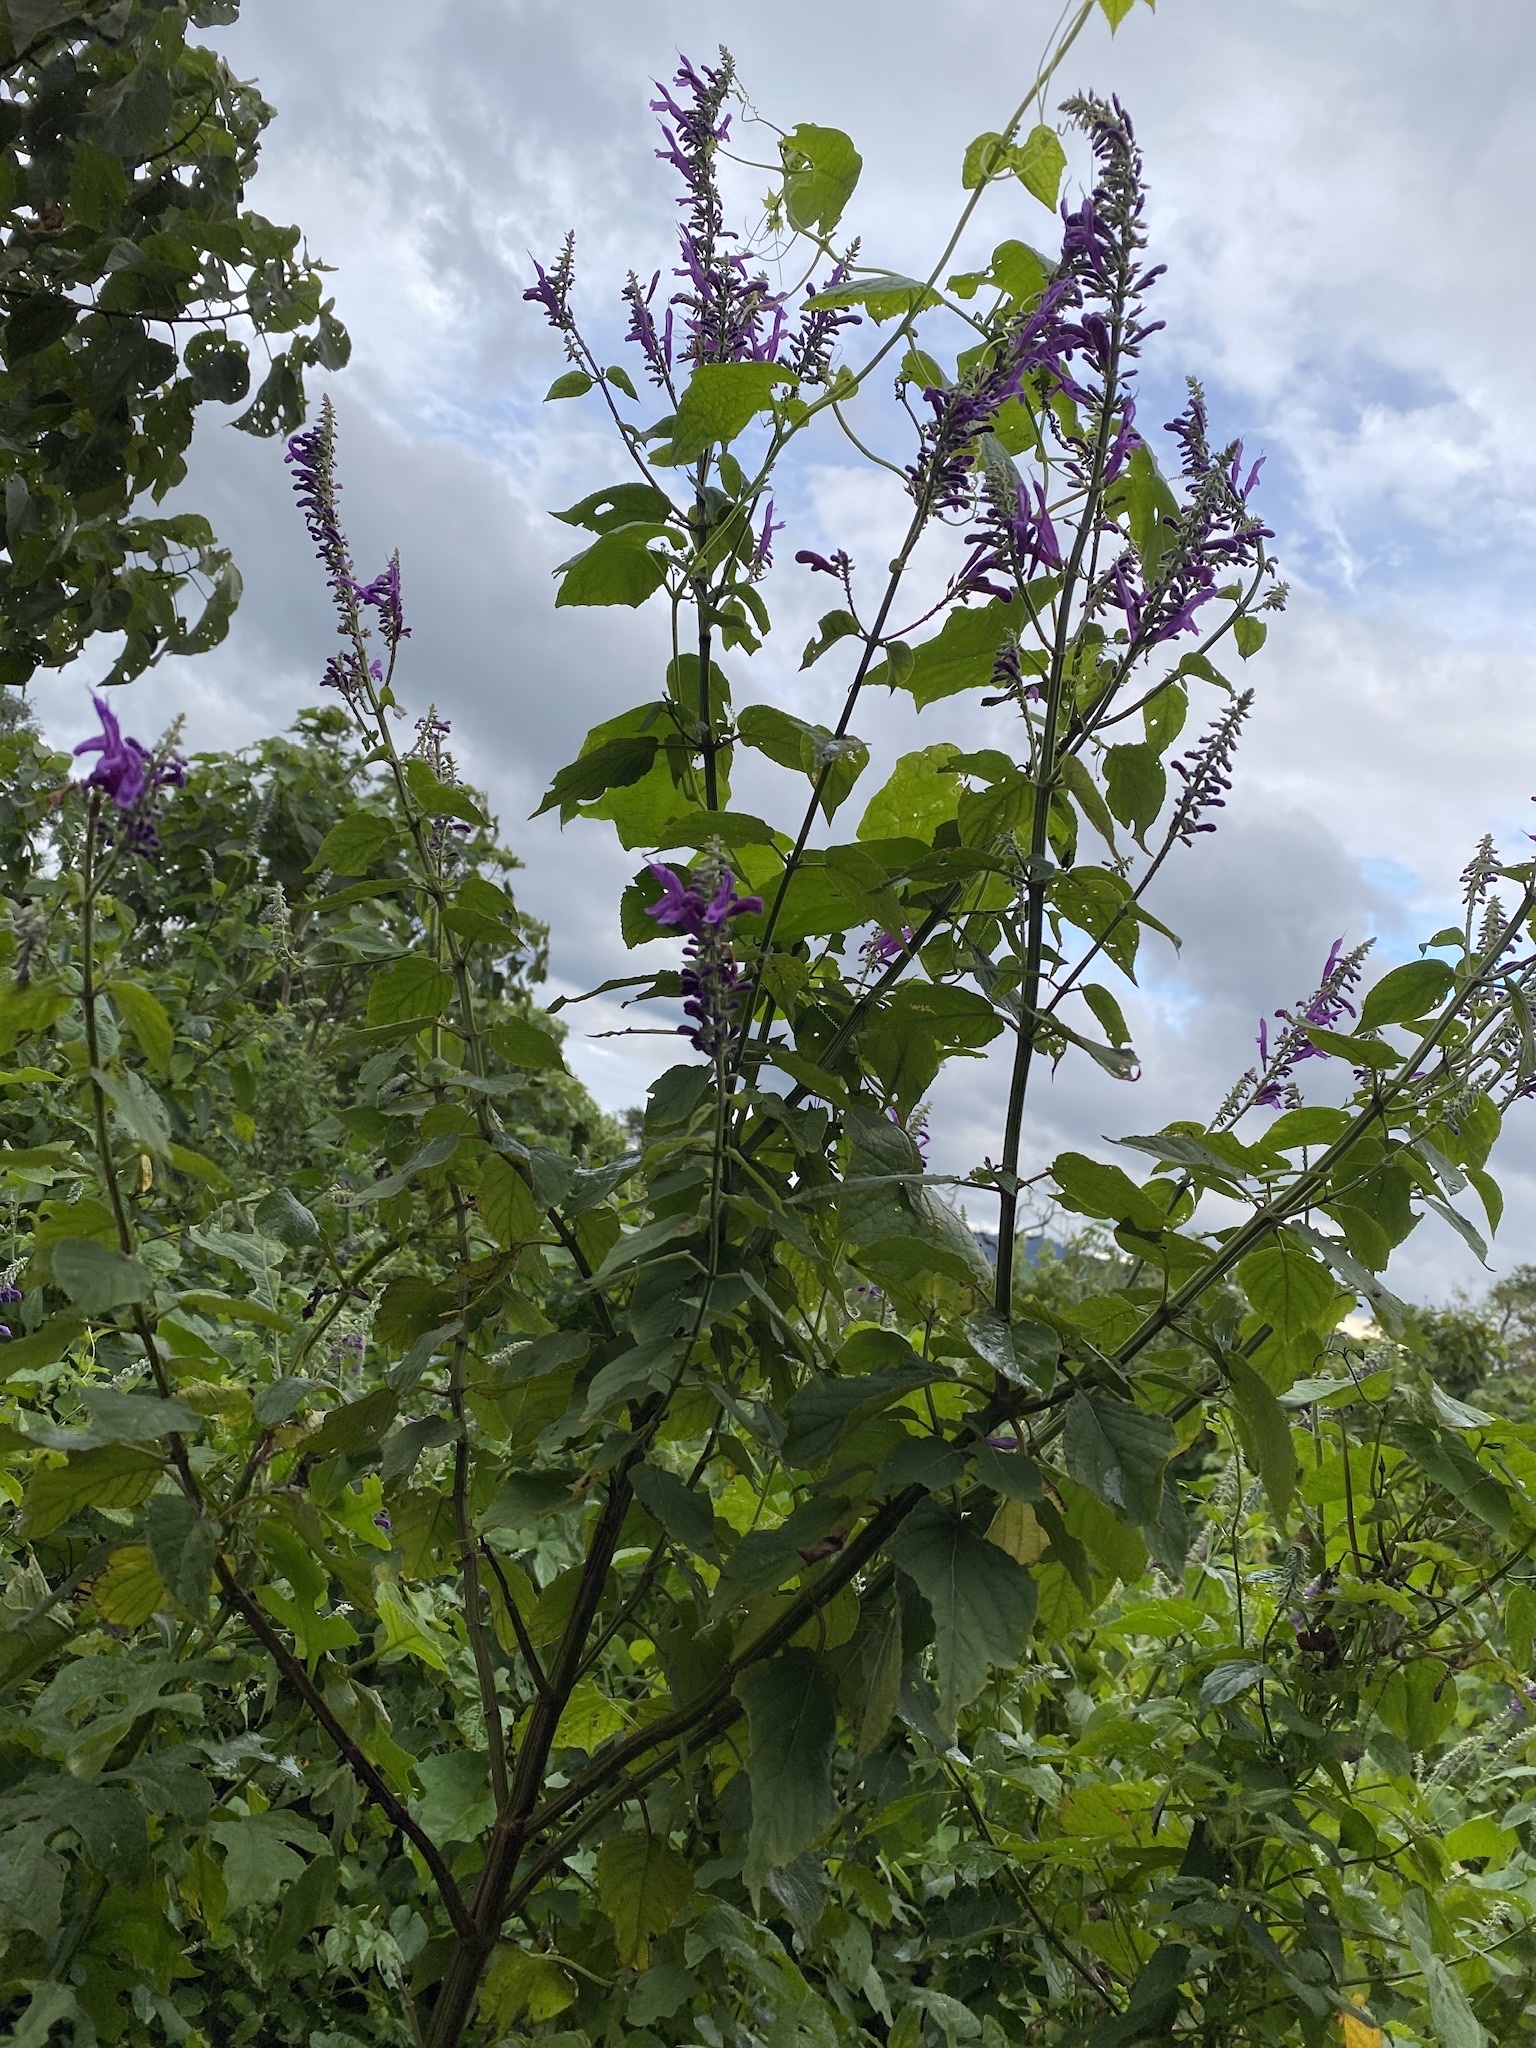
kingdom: Plantae
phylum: Tracheophyta
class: Magnoliopsida
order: Lamiales
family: Lamiaceae
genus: Salvia
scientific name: Salvia purpurea
